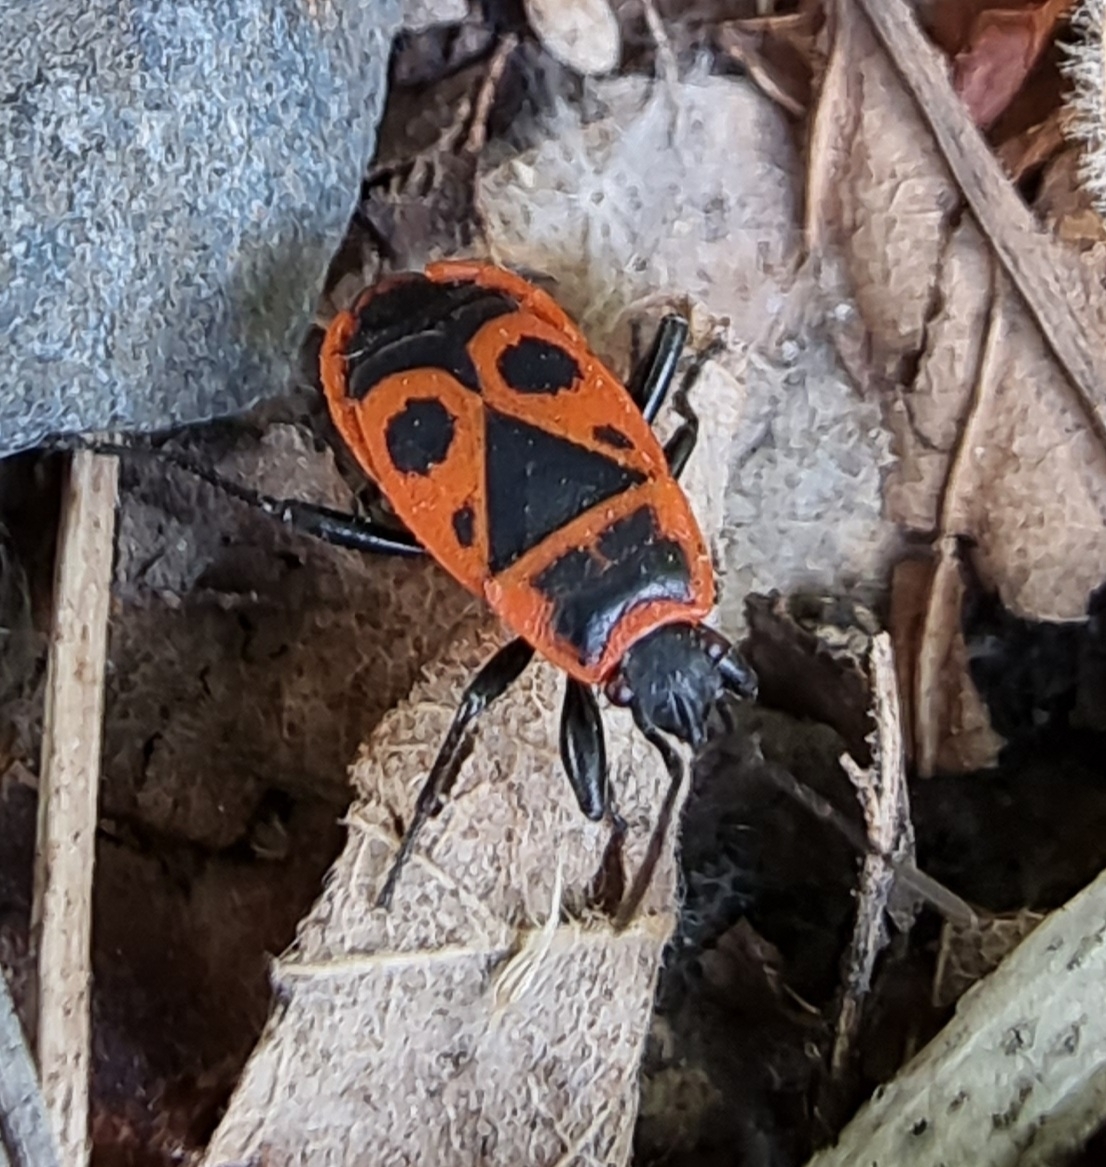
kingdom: Animalia
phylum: Arthropoda
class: Insecta
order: Hemiptera
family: Pyrrhocoridae
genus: Pyrrhocoris
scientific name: Pyrrhocoris apterus
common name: Firebug
